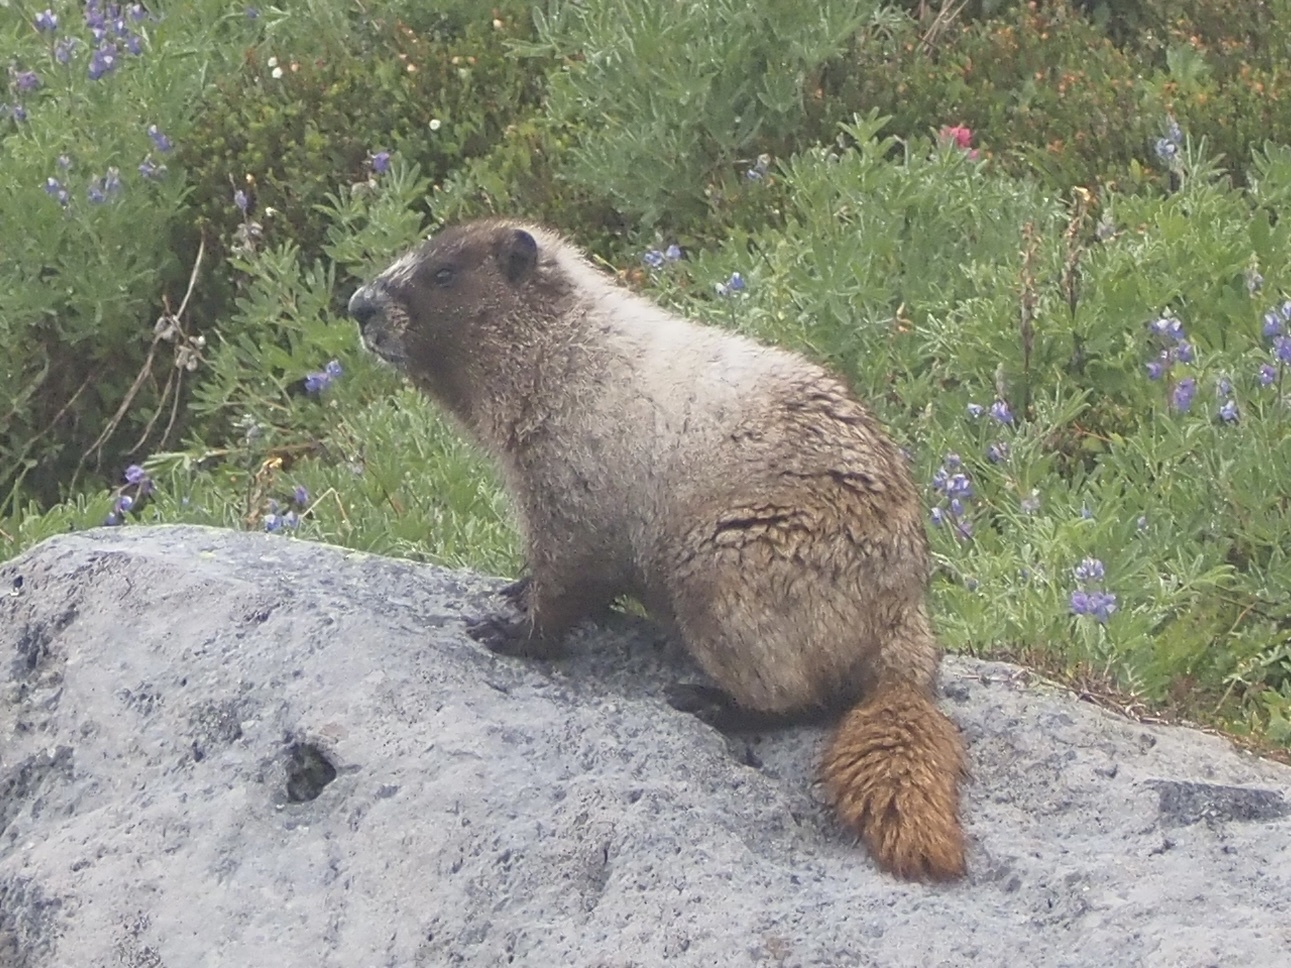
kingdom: Animalia
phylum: Chordata
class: Mammalia
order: Rodentia
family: Sciuridae
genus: Marmota
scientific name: Marmota caligata
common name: Hoary marmot
